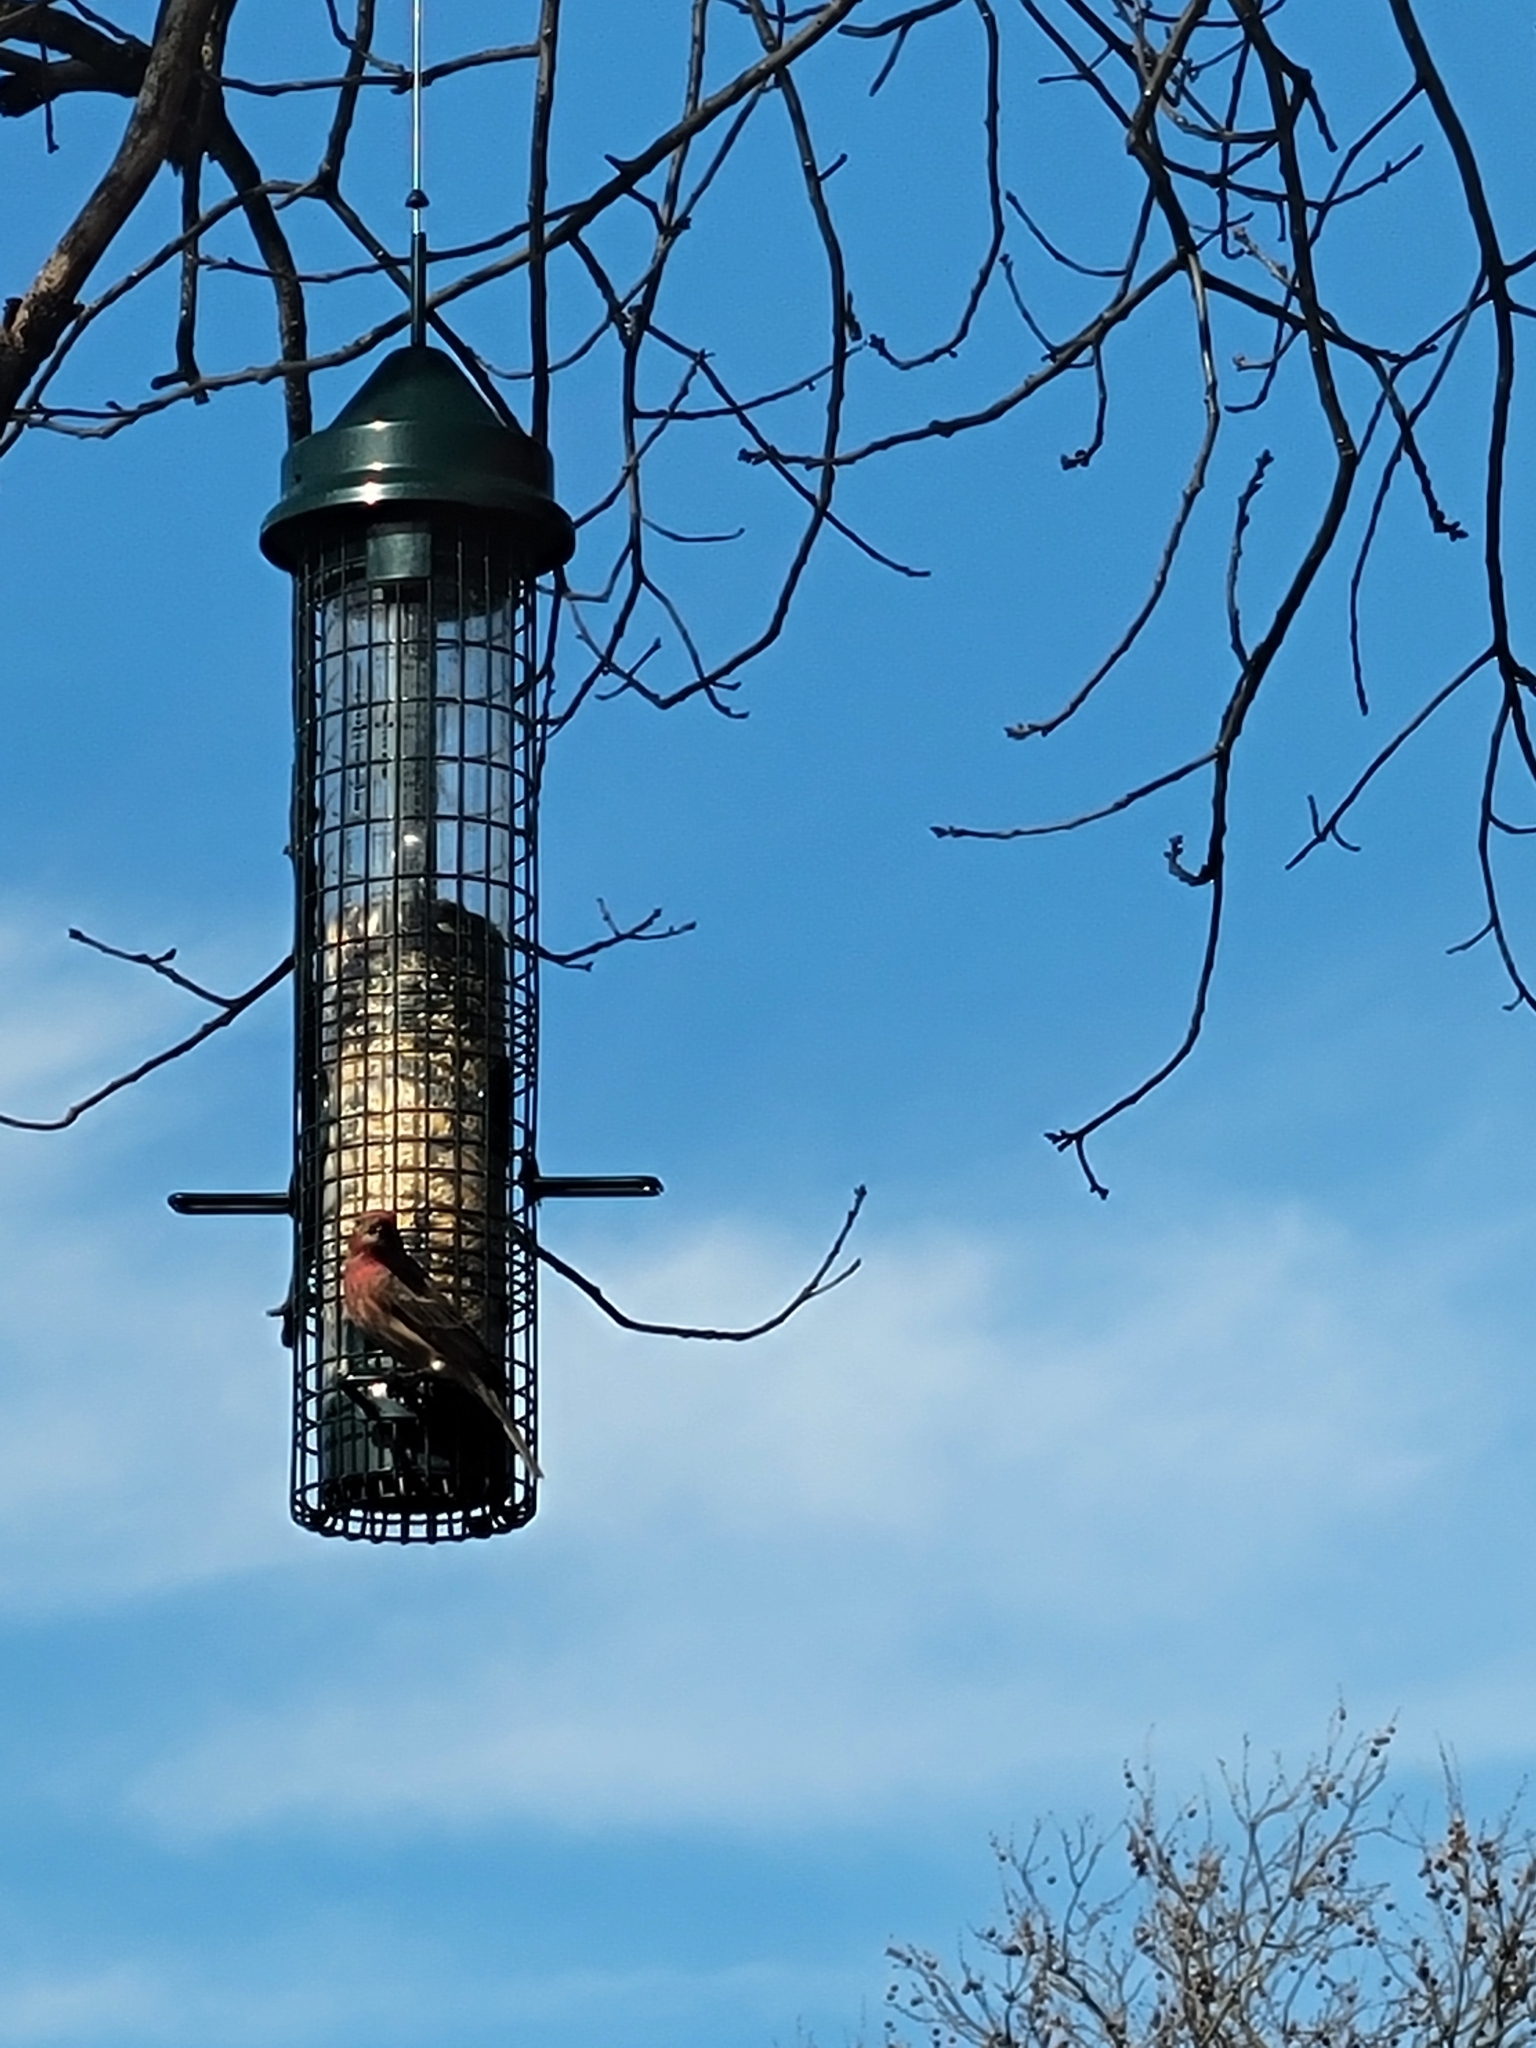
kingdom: Animalia
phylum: Chordata
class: Aves
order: Passeriformes
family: Fringillidae
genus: Haemorhous
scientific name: Haemorhous mexicanus
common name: House finch
